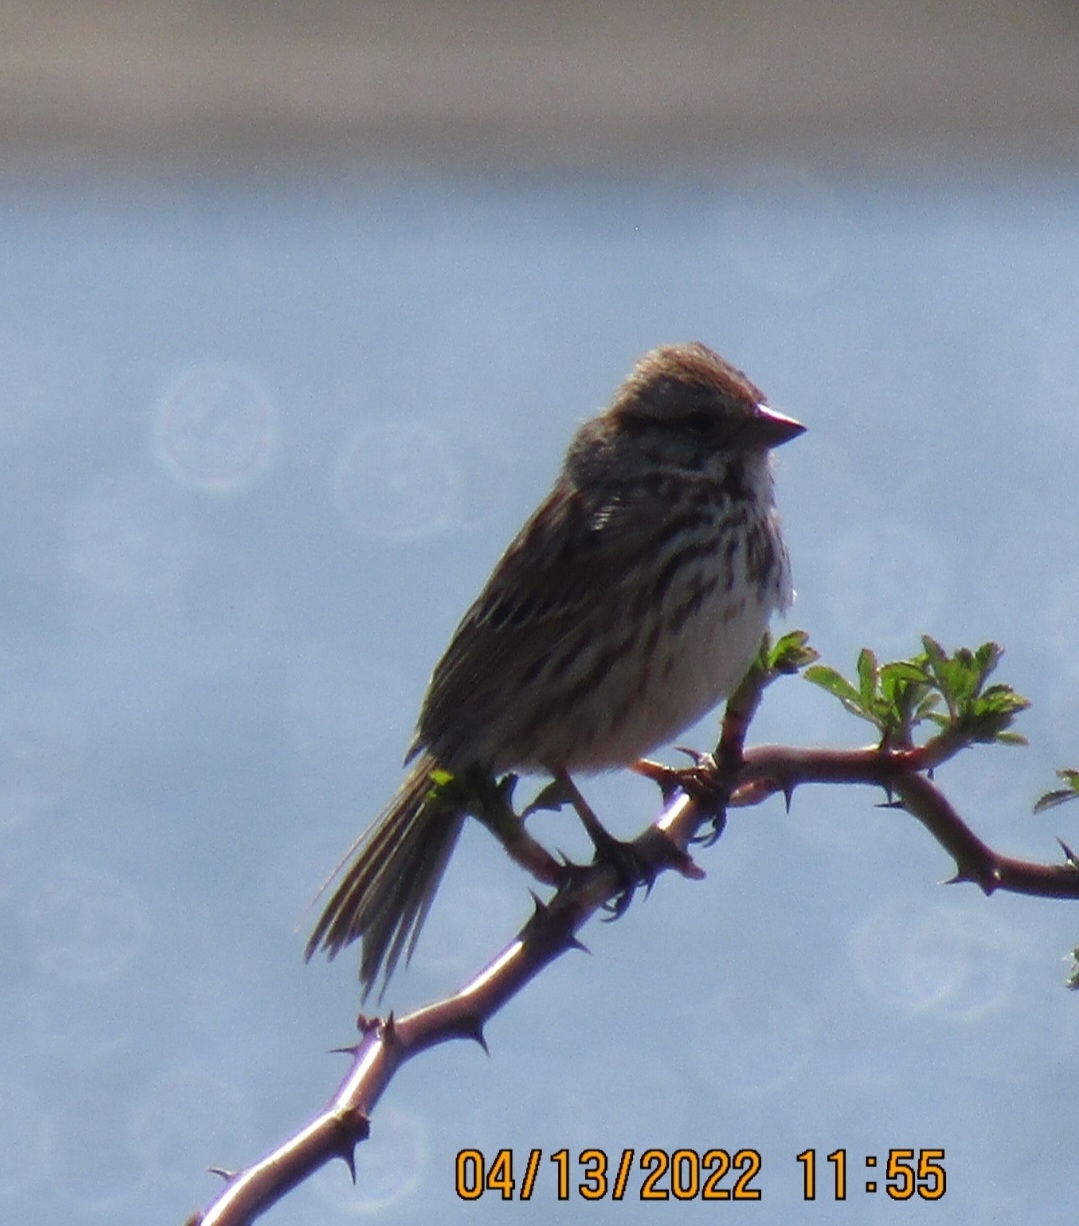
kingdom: Animalia
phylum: Chordata
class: Aves
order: Passeriformes
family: Passerellidae
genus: Melospiza
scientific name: Melospiza melodia
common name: Song sparrow
